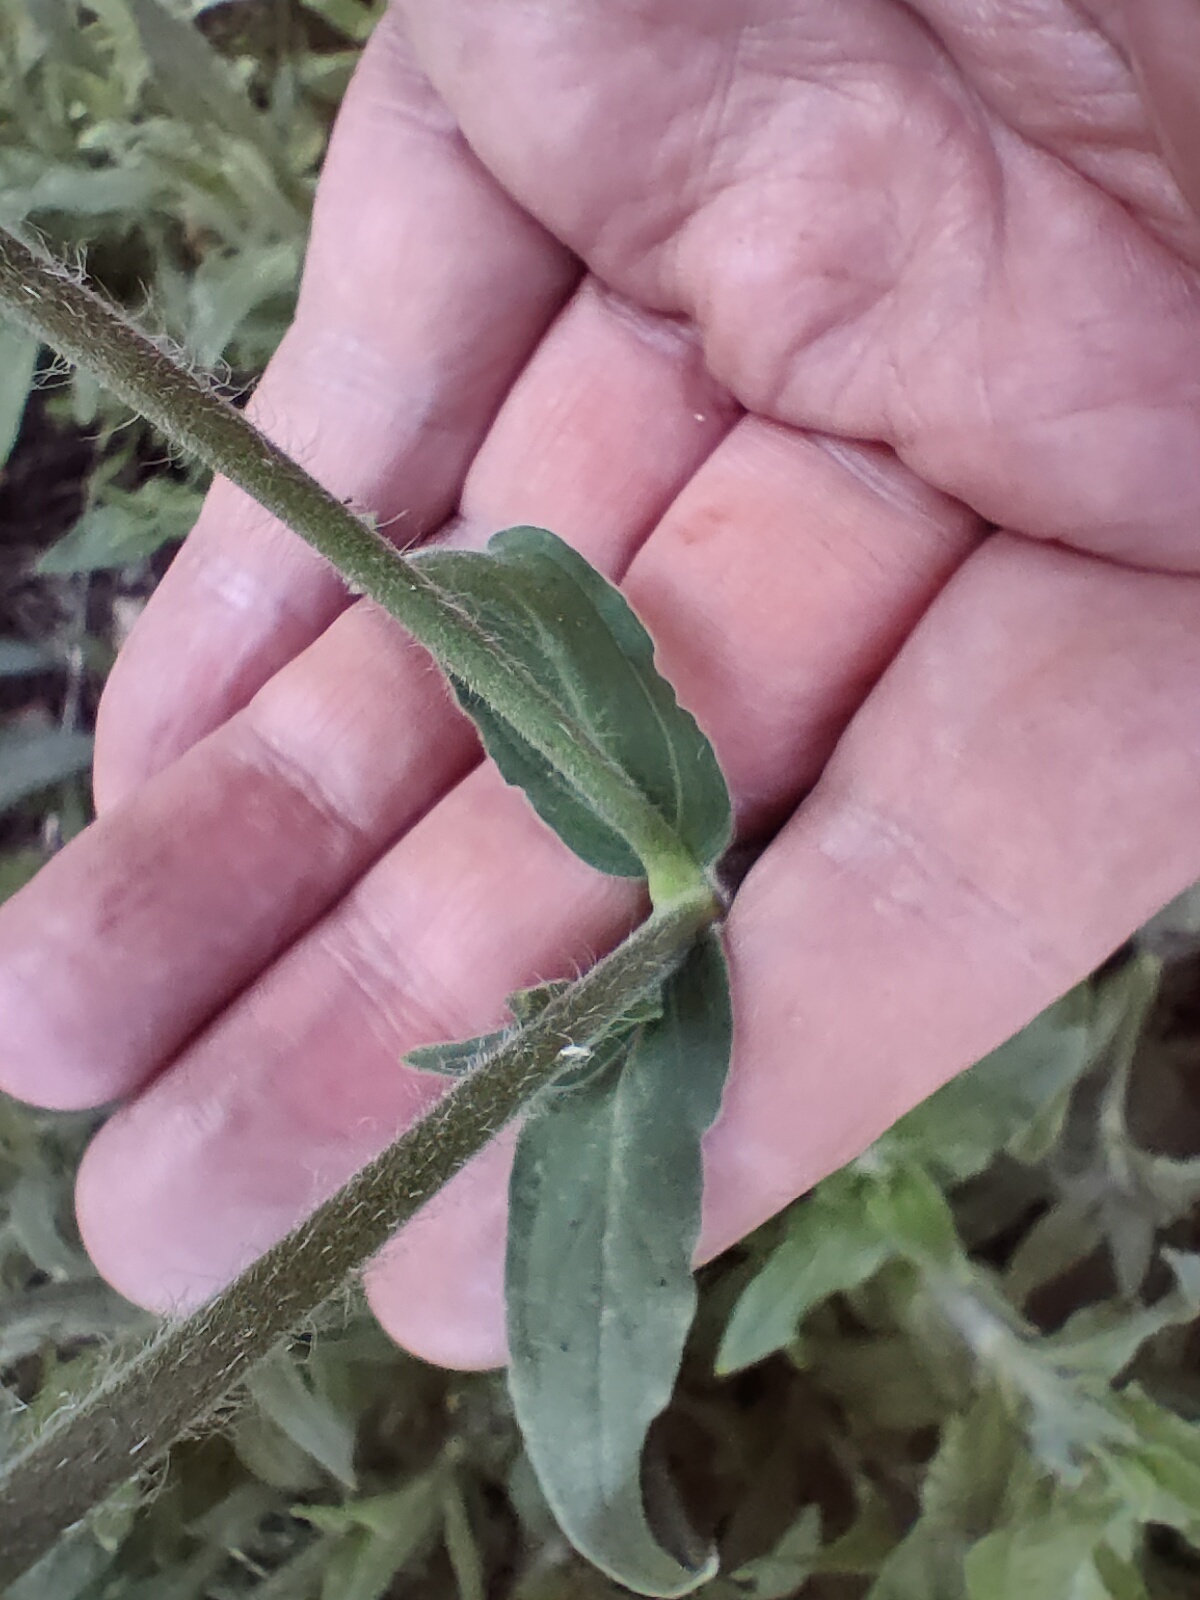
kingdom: Plantae
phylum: Tracheophyta
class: Magnoliopsida
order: Caryophyllales
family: Caryophyllaceae
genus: Silene
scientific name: Silene latifolia
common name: White campion
